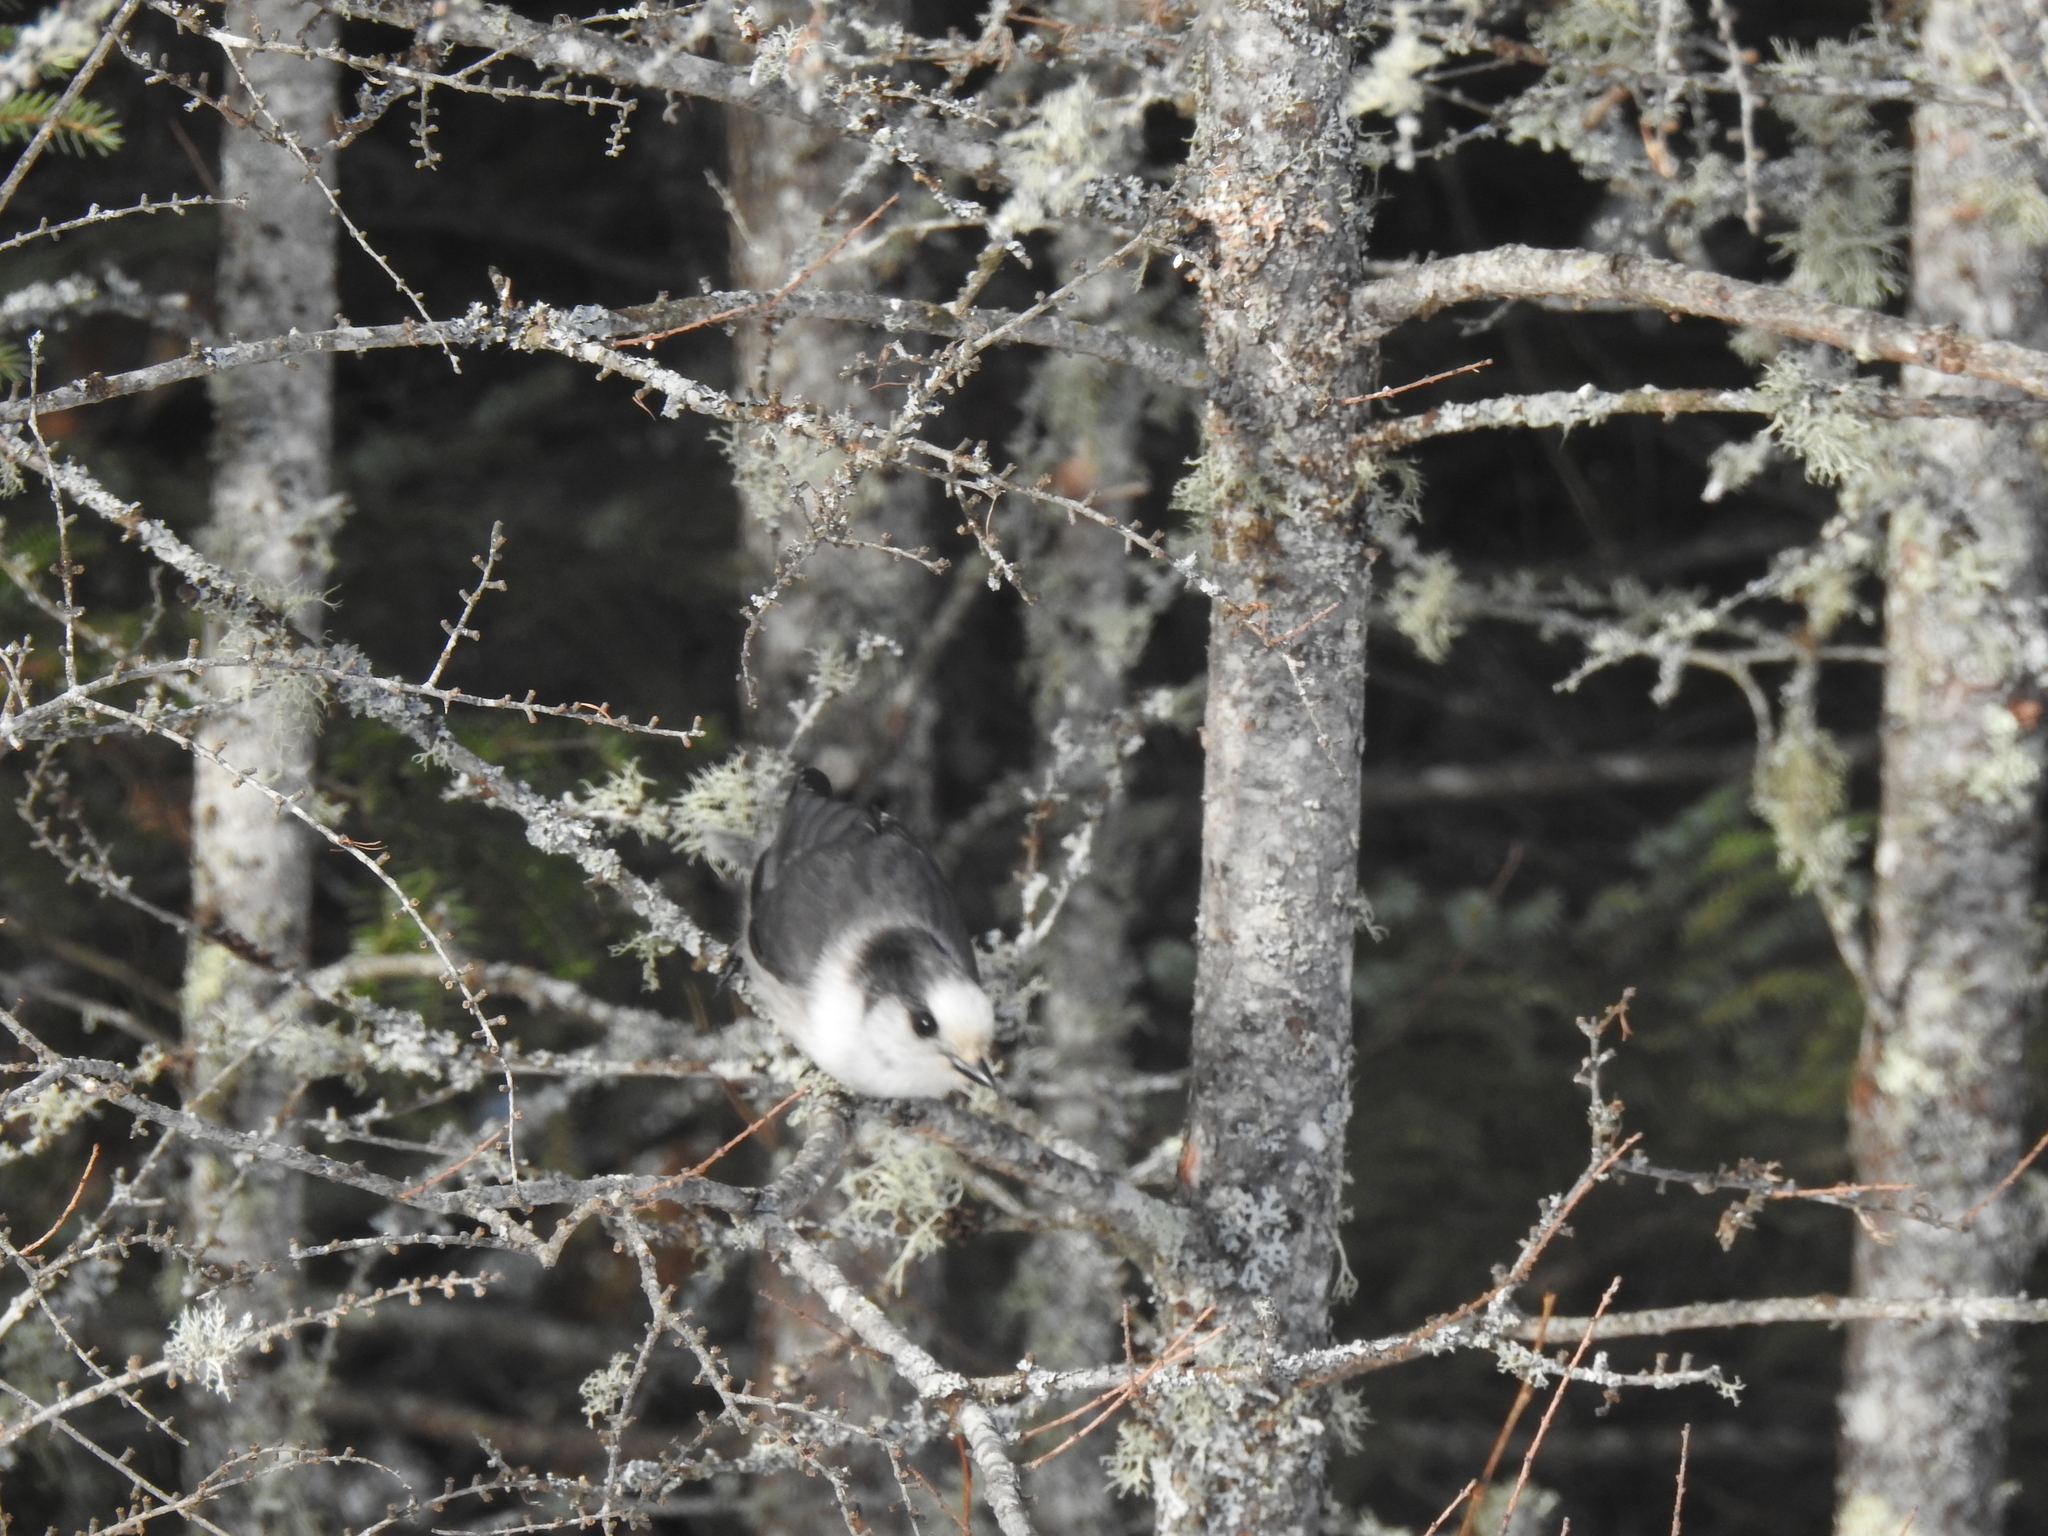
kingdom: Animalia
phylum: Chordata
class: Aves
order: Passeriformes
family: Corvidae
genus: Perisoreus
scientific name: Perisoreus canadensis
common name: Gray jay
